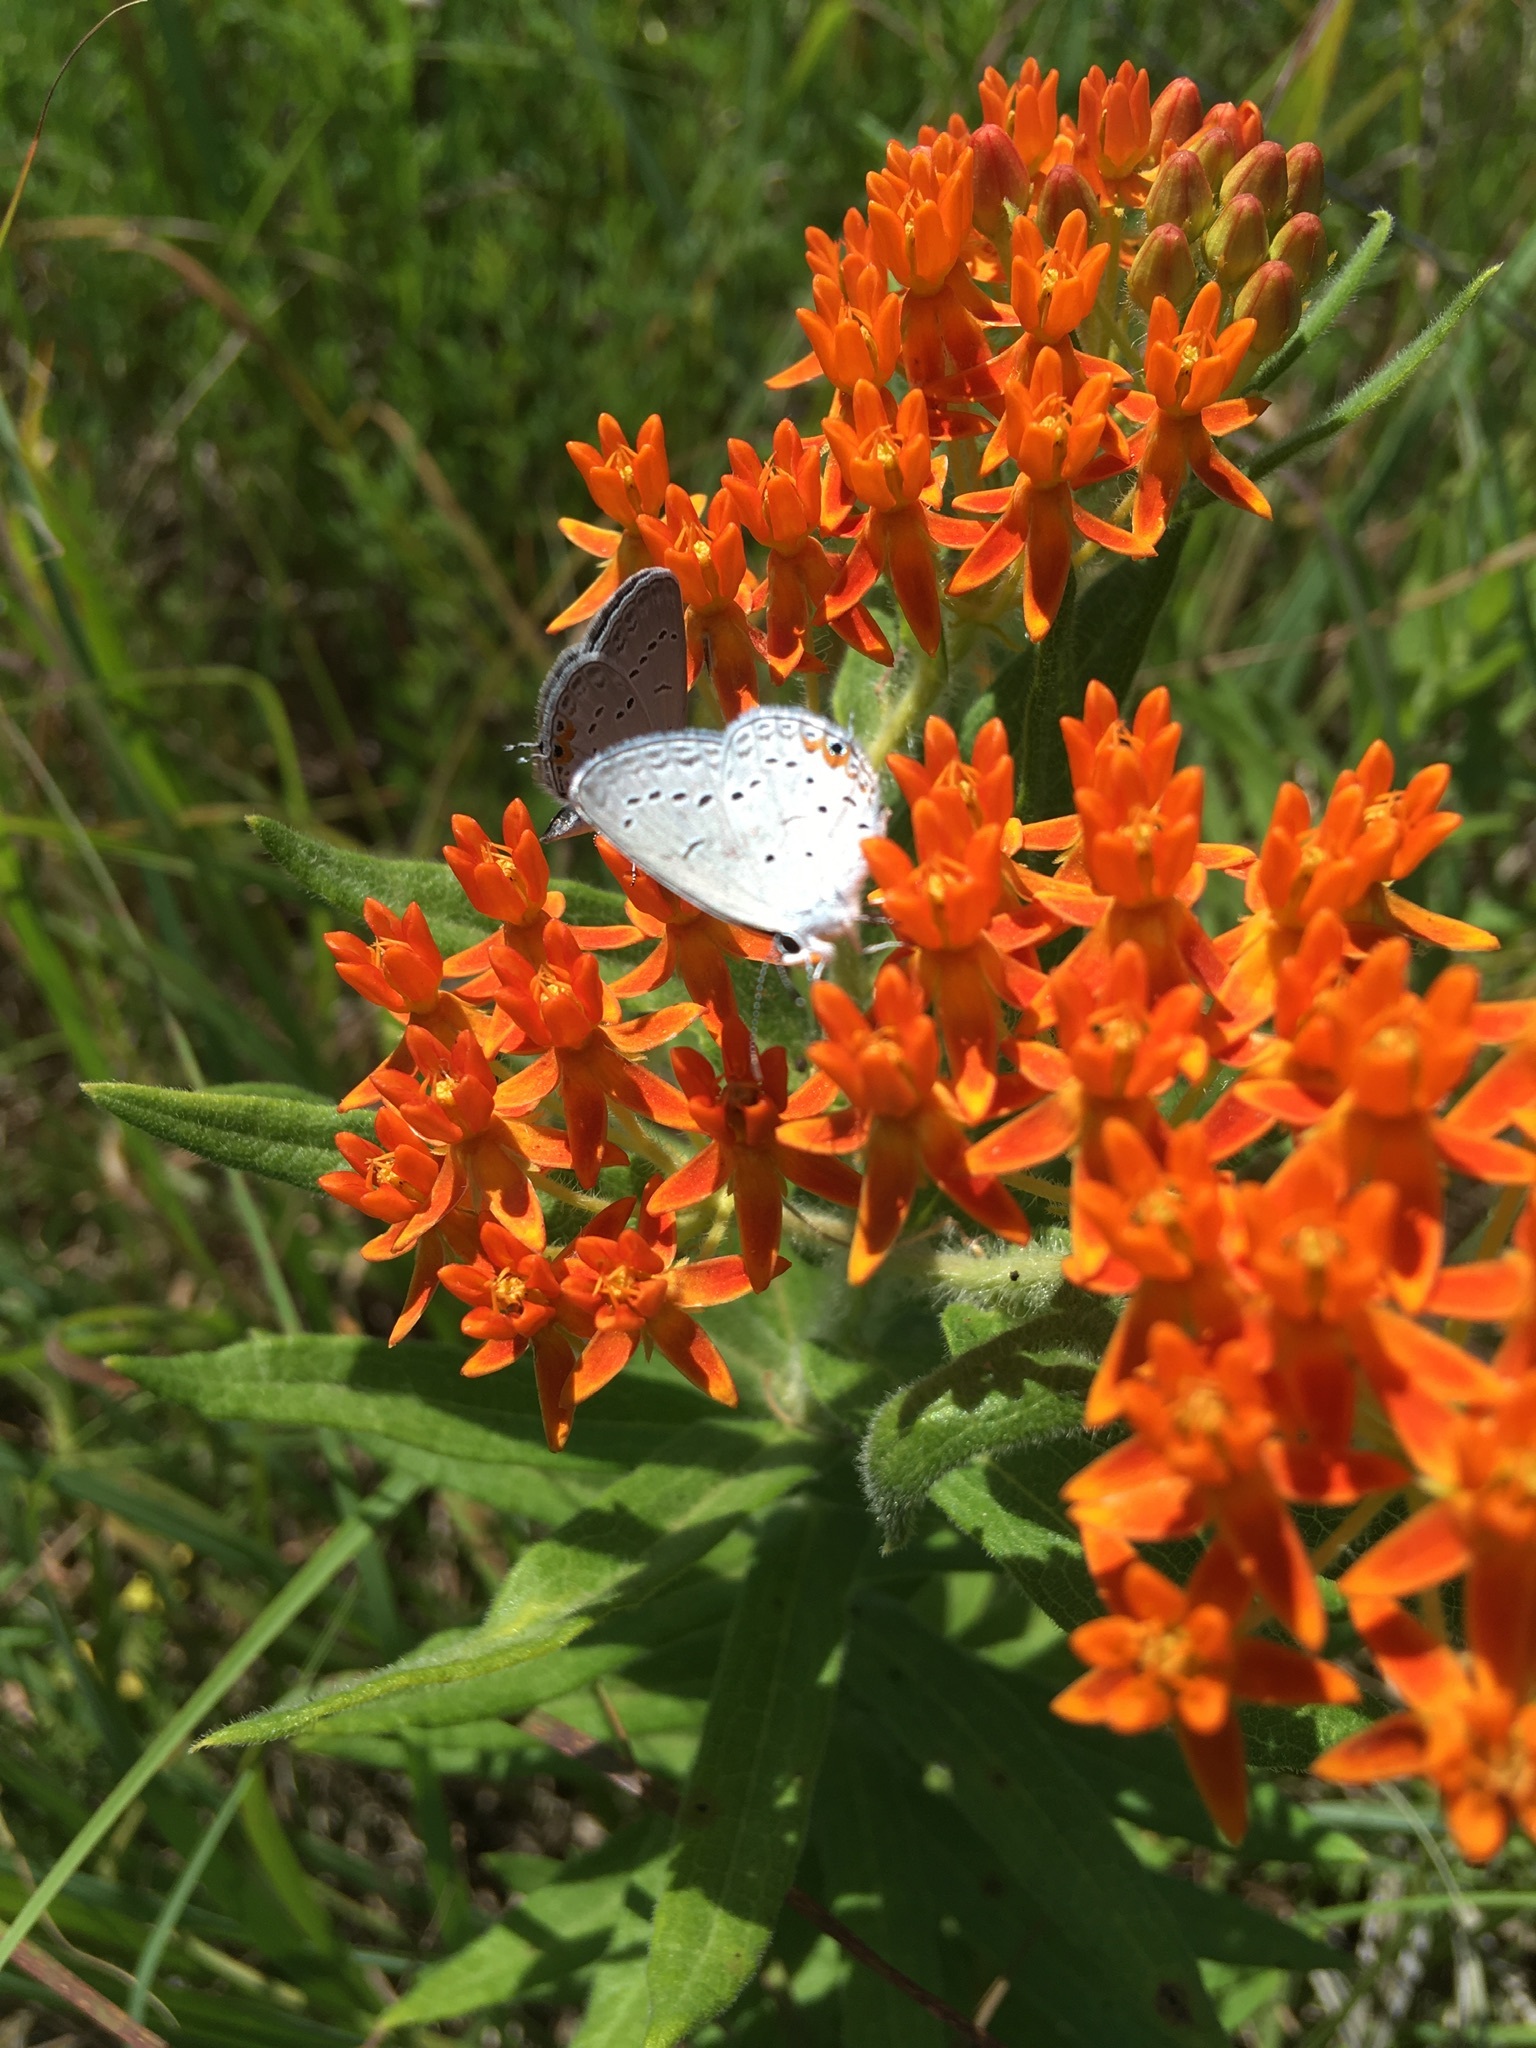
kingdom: Animalia
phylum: Arthropoda
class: Insecta
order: Lepidoptera
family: Lycaenidae
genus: Elkalyce
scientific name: Elkalyce comyntas
